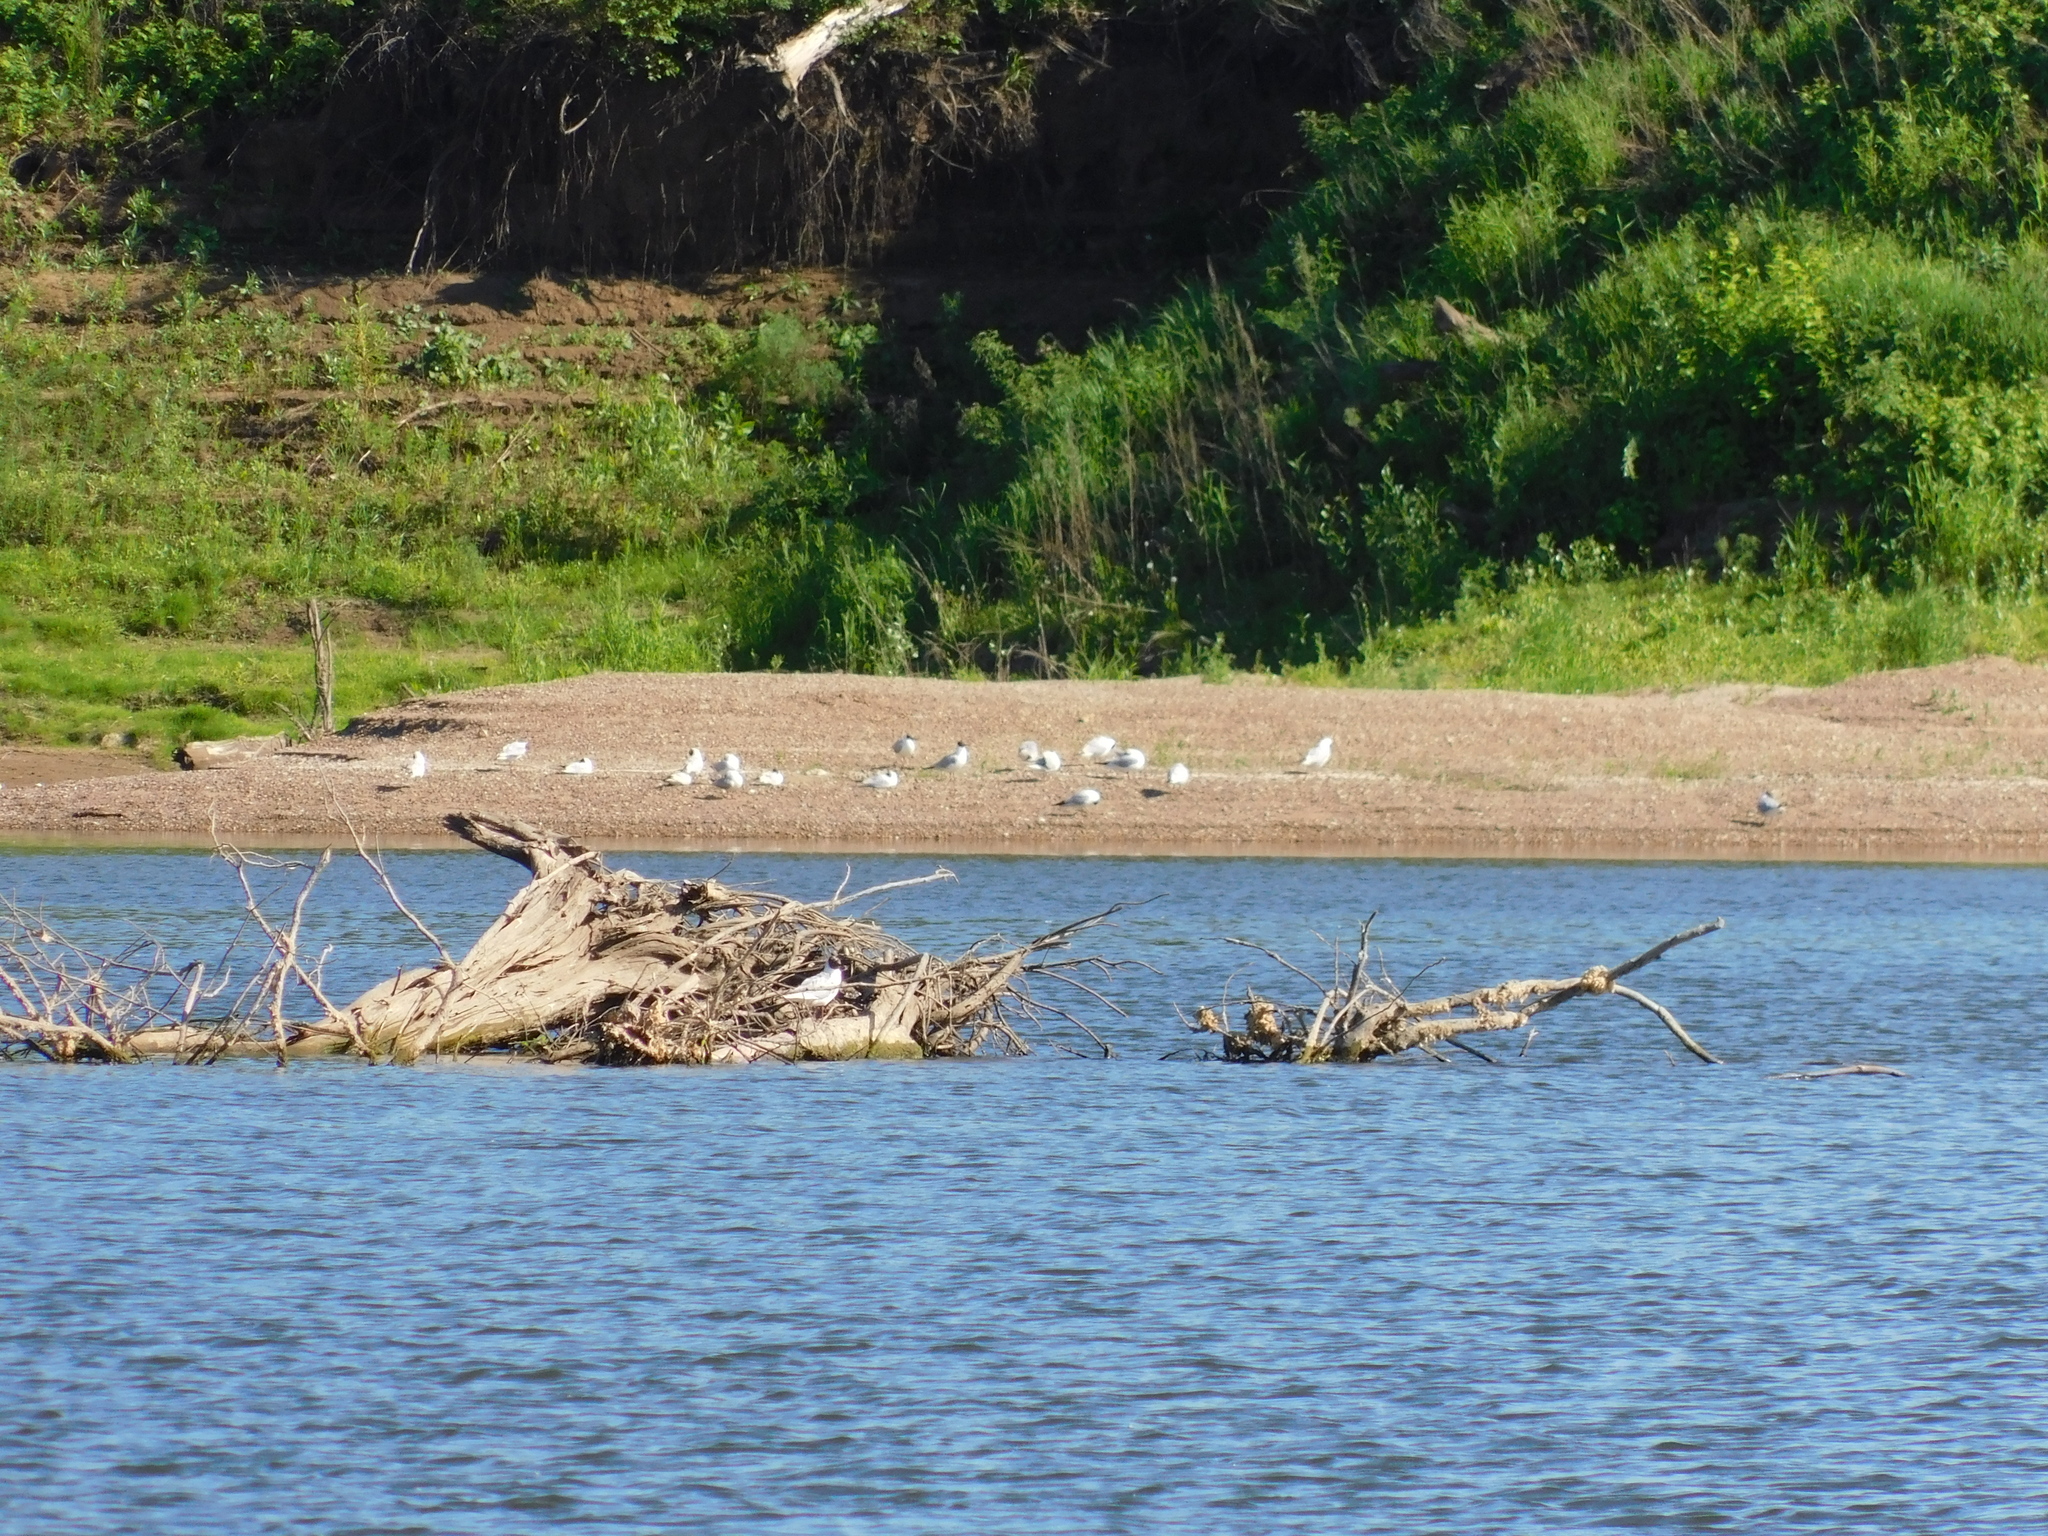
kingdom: Animalia
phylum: Chordata
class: Aves
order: Charadriiformes
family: Laridae
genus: Chroicocephalus
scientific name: Chroicocephalus ridibundus
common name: Black-headed gull
